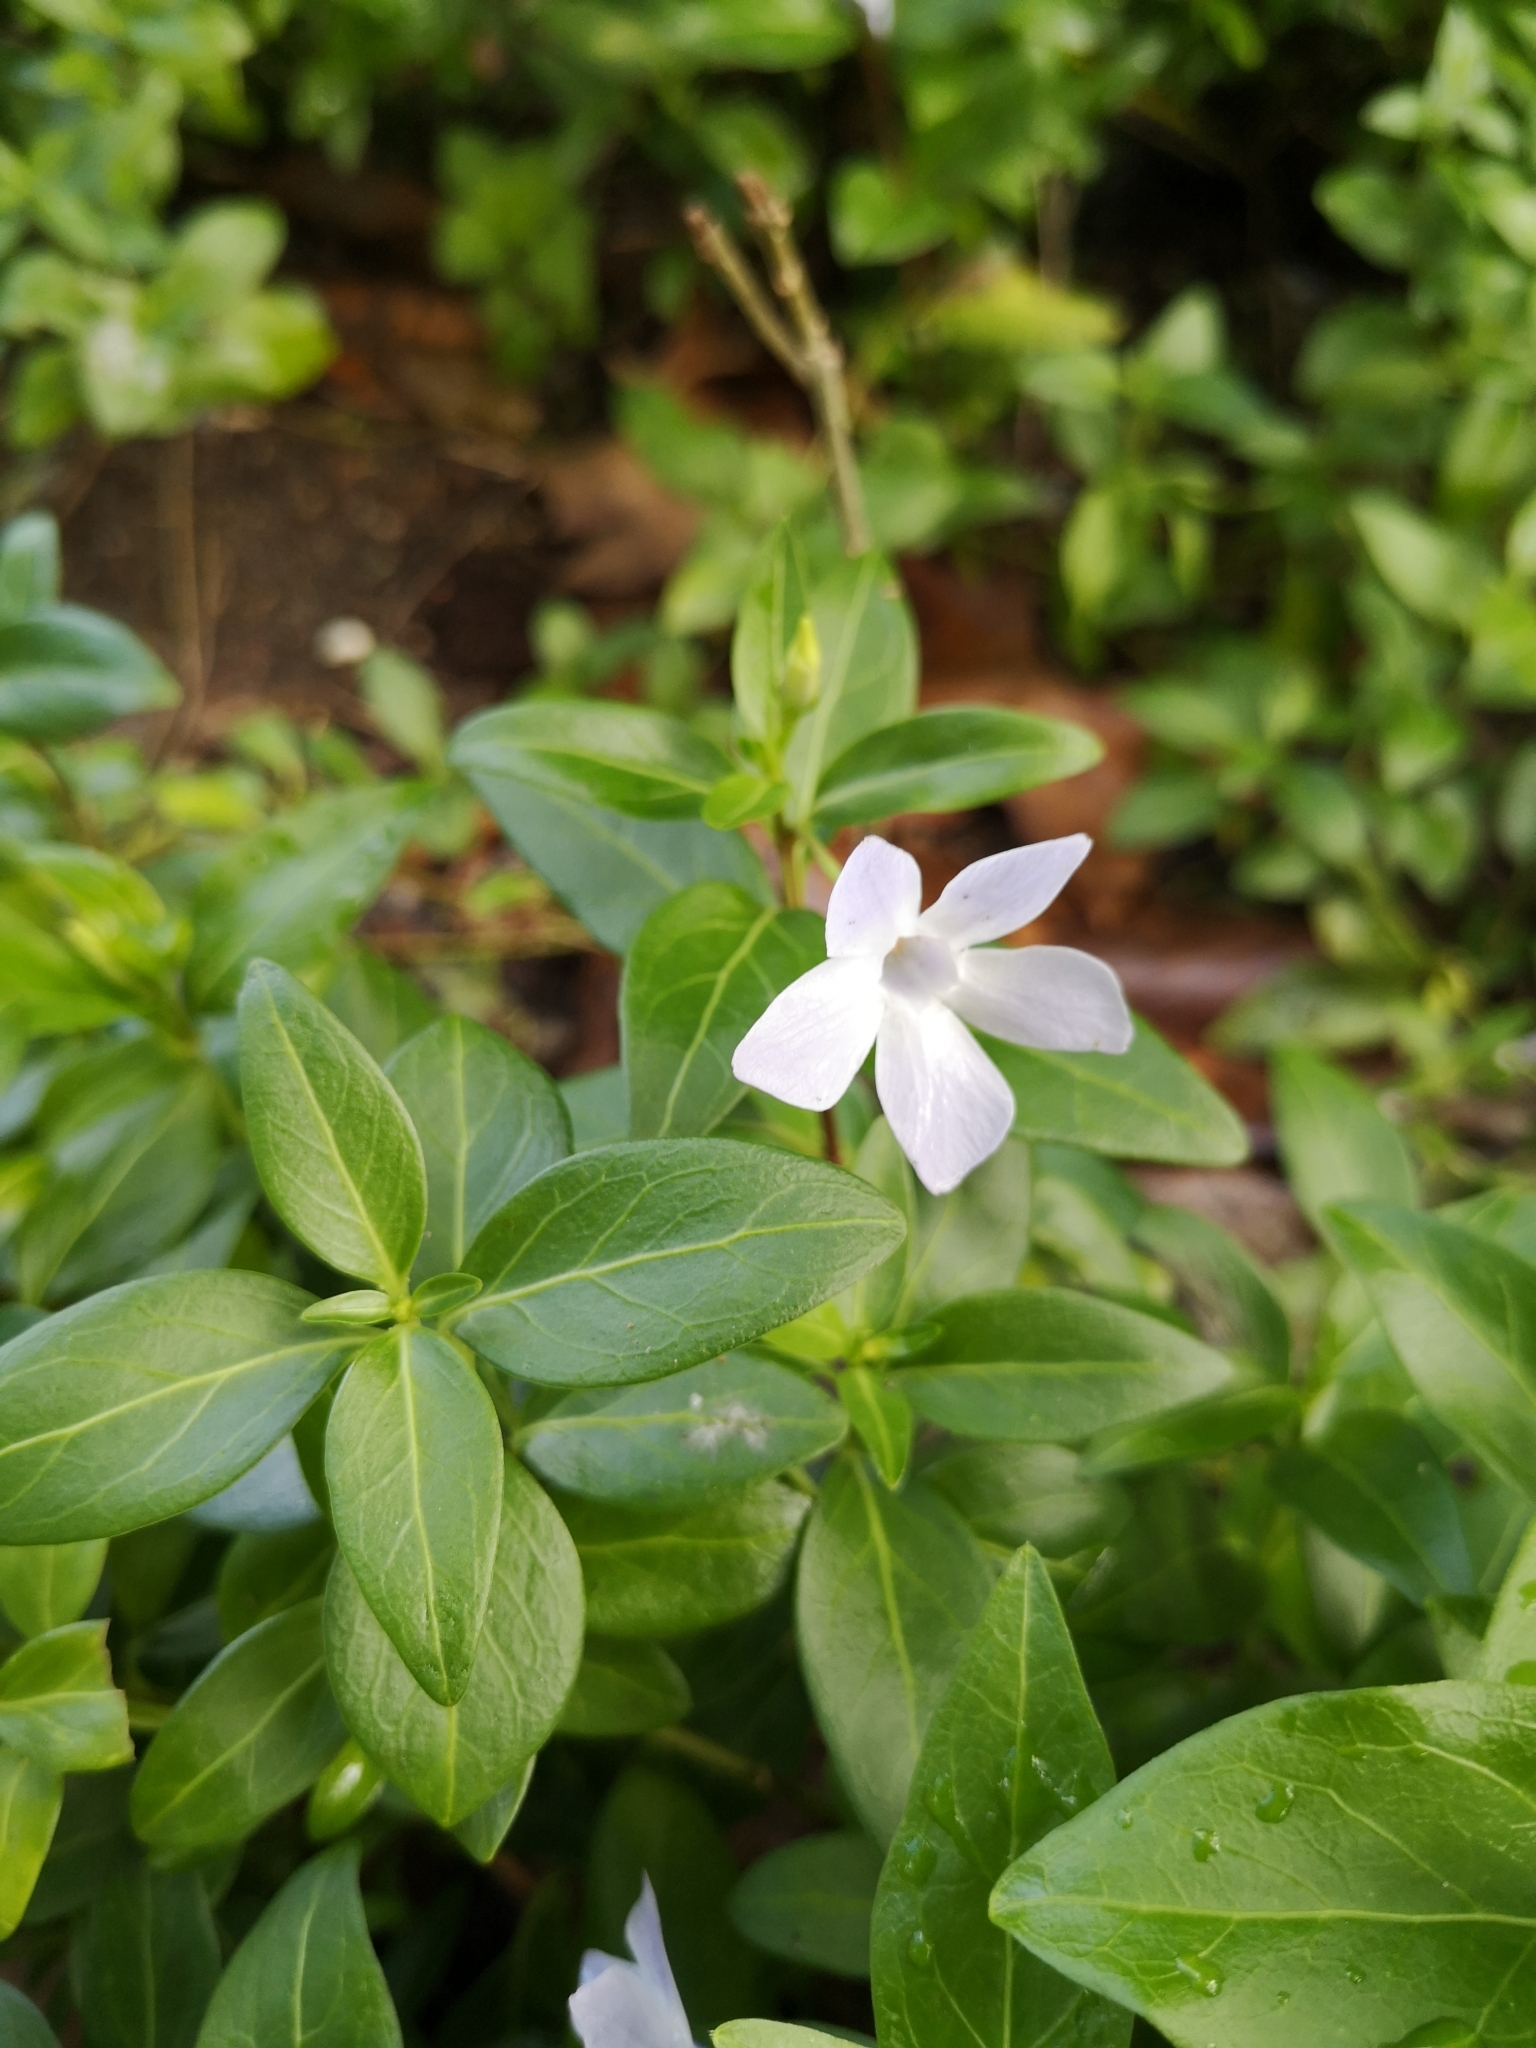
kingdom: Plantae
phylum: Tracheophyta
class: Magnoliopsida
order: Gentianales
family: Apocynaceae
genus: Vinca
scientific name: Vinca difformis
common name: Intermediate periwinkle
